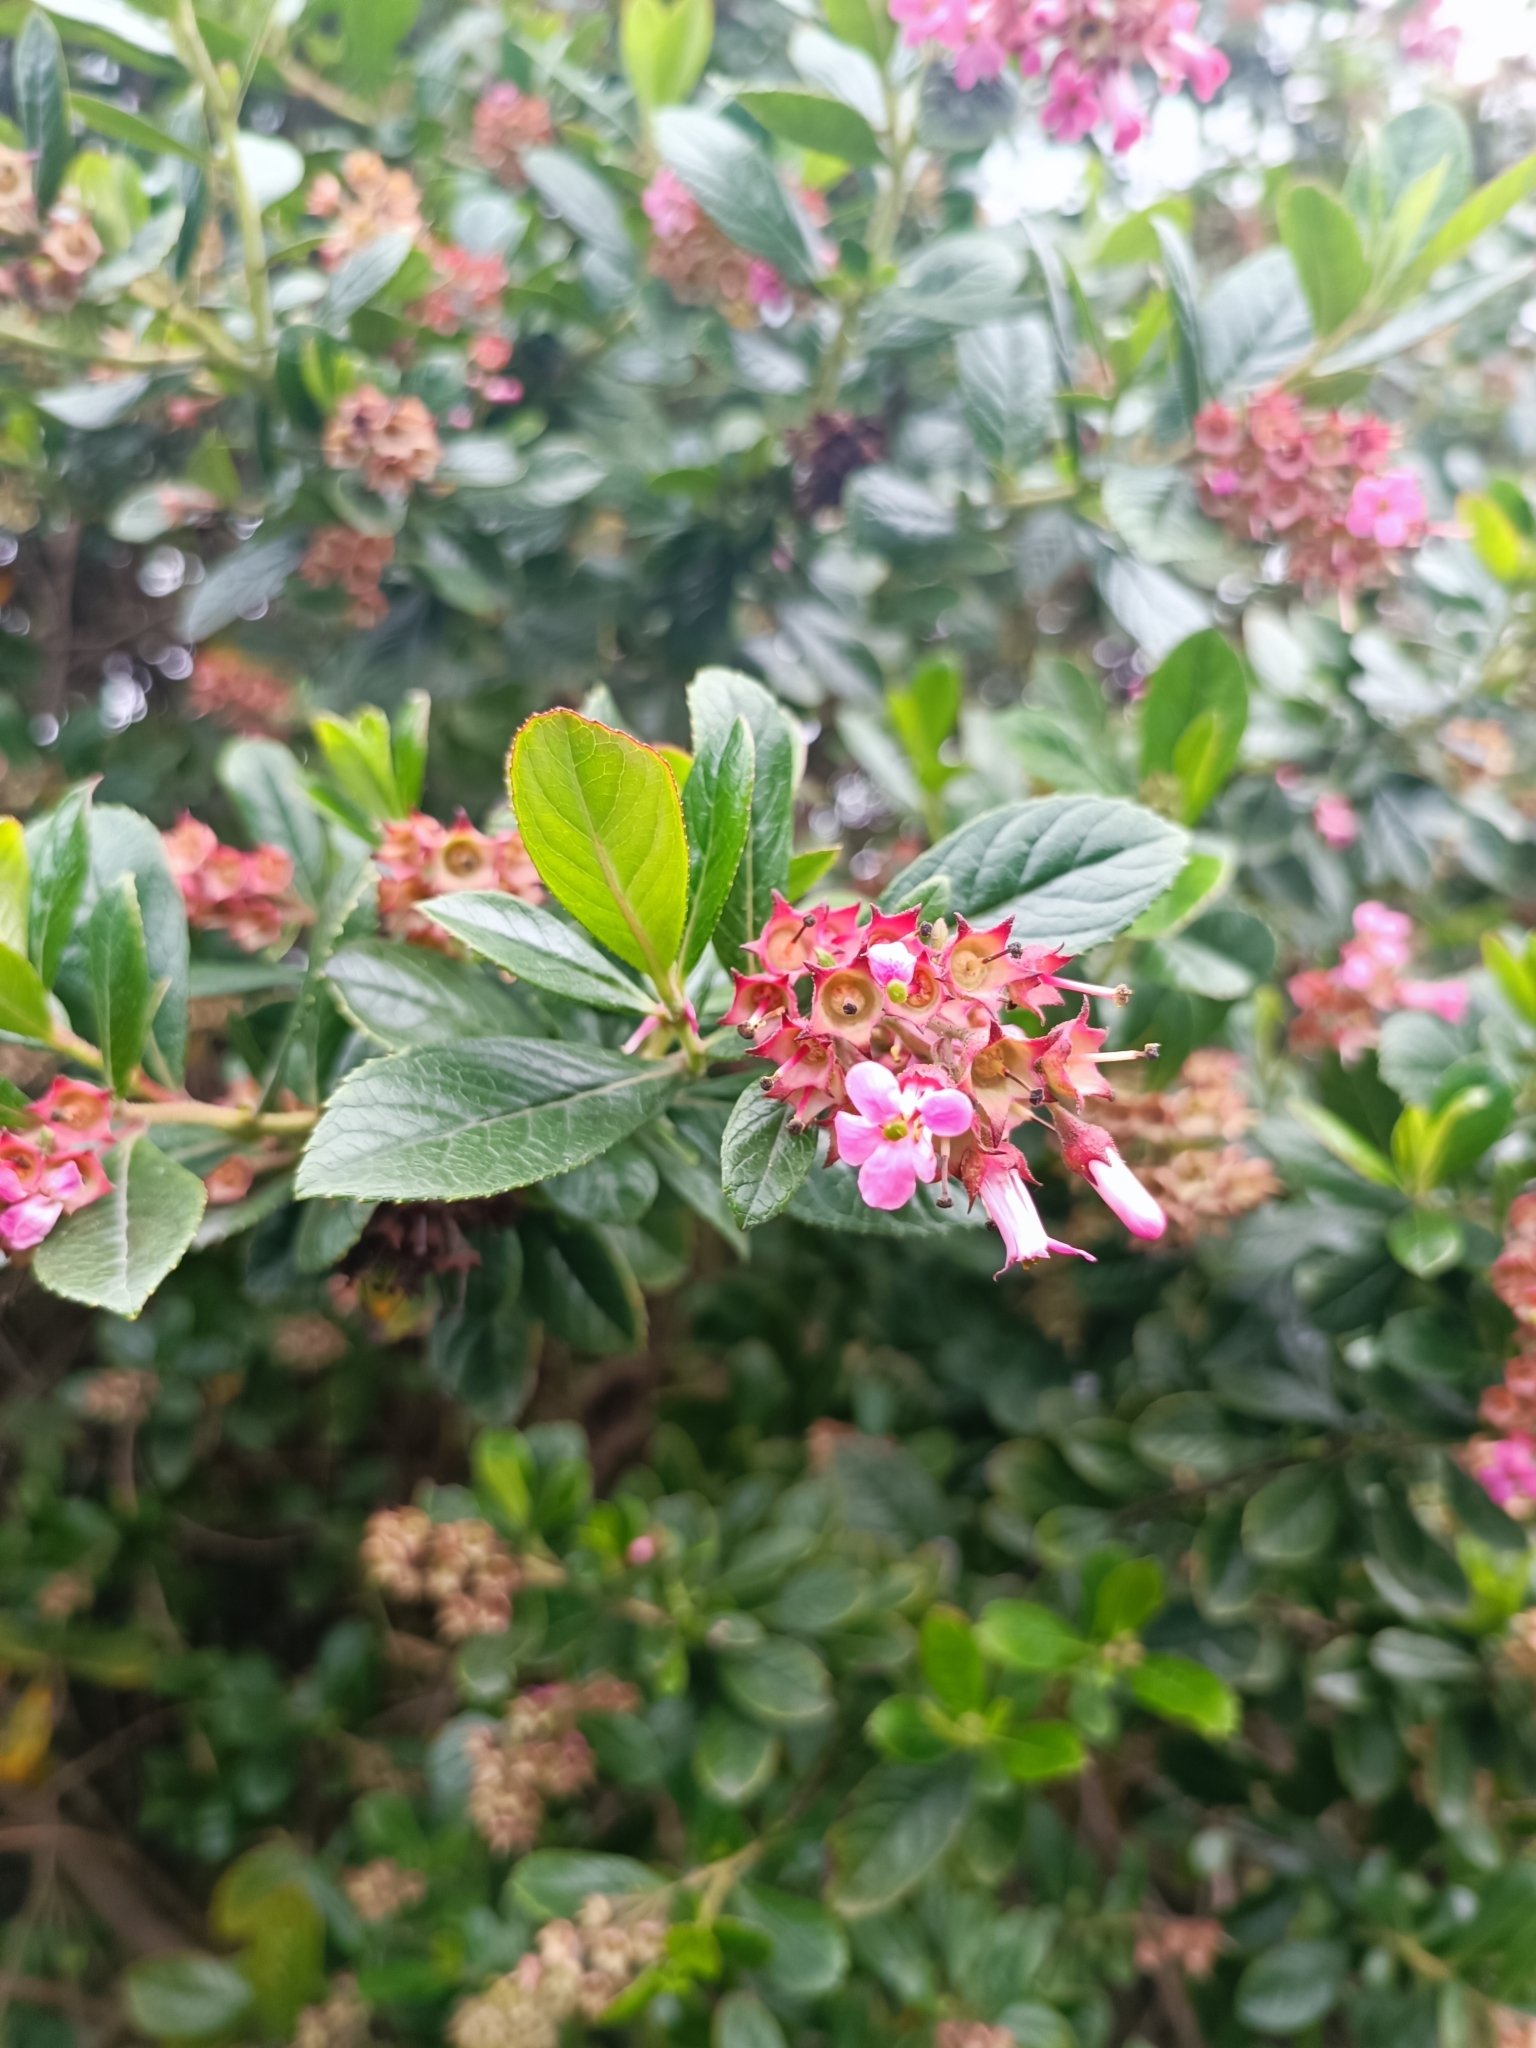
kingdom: Plantae
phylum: Tracheophyta
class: Magnoliopsida
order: Escalloniales
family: Escalloniaceae
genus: Escallonia
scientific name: Escallonia rubra
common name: Redclaws
